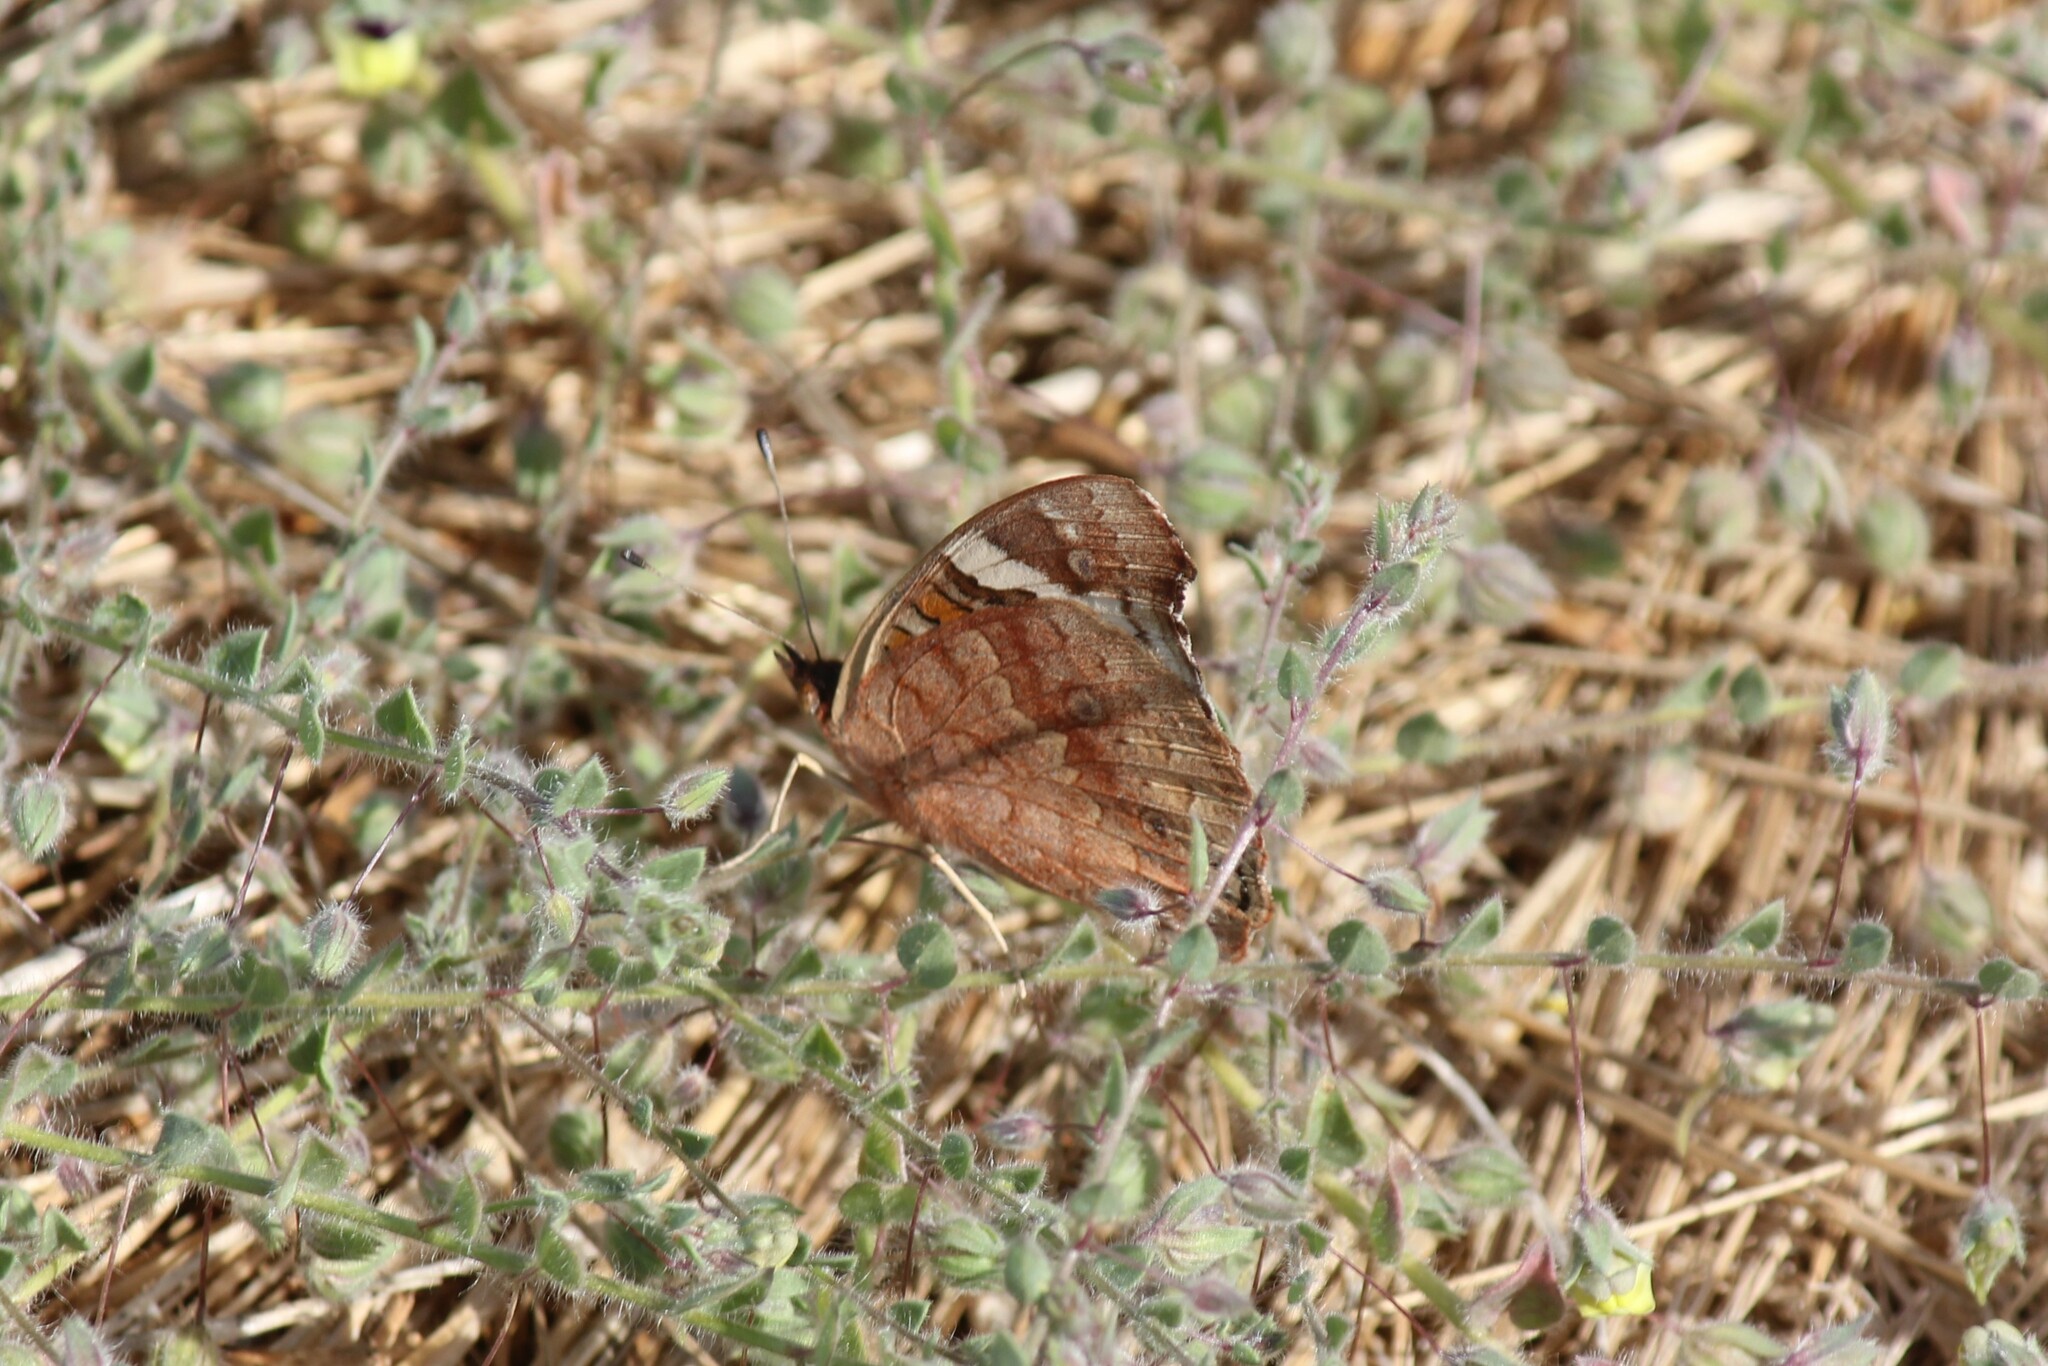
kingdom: Animalia
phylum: Arthropoda
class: Insecta
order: Lepidoptera
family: Nymphalidae
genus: Junonia
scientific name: Junonia grisea
